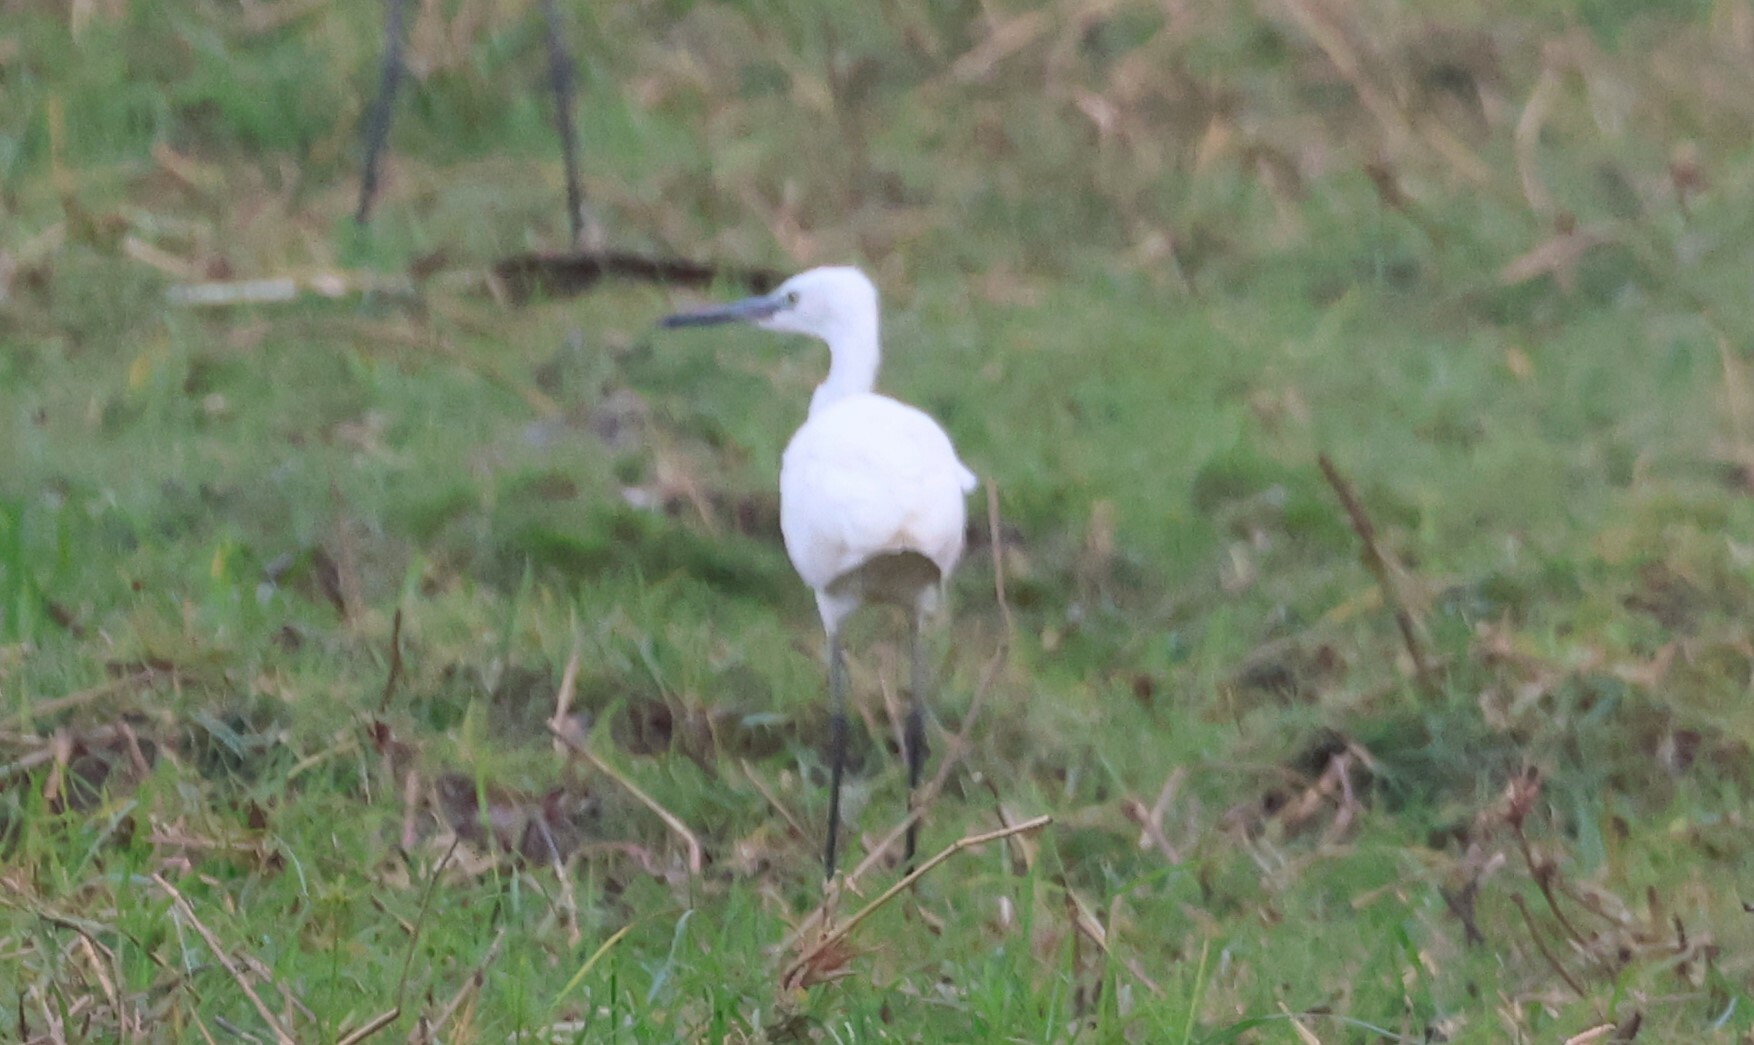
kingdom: Animalia
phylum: Chordata
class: Aves
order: Pelecaniformes
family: Ardeidae
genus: Egretta
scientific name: Egretta garzetta
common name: Little egret
